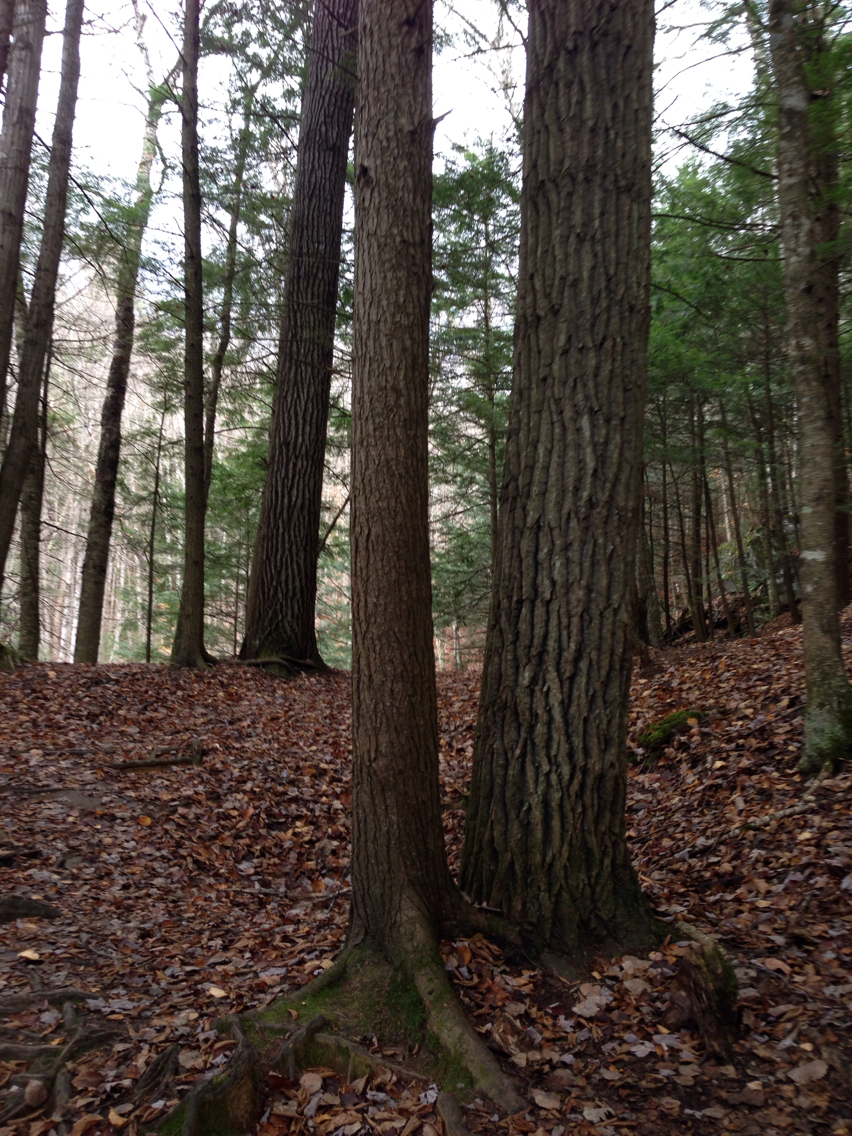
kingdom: Plantae
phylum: Tracheophyta
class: Magnoliopsida
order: Malpighiales
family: Salicaceae
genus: Populus
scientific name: Populus grandidentata
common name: Bigtooth aspen
